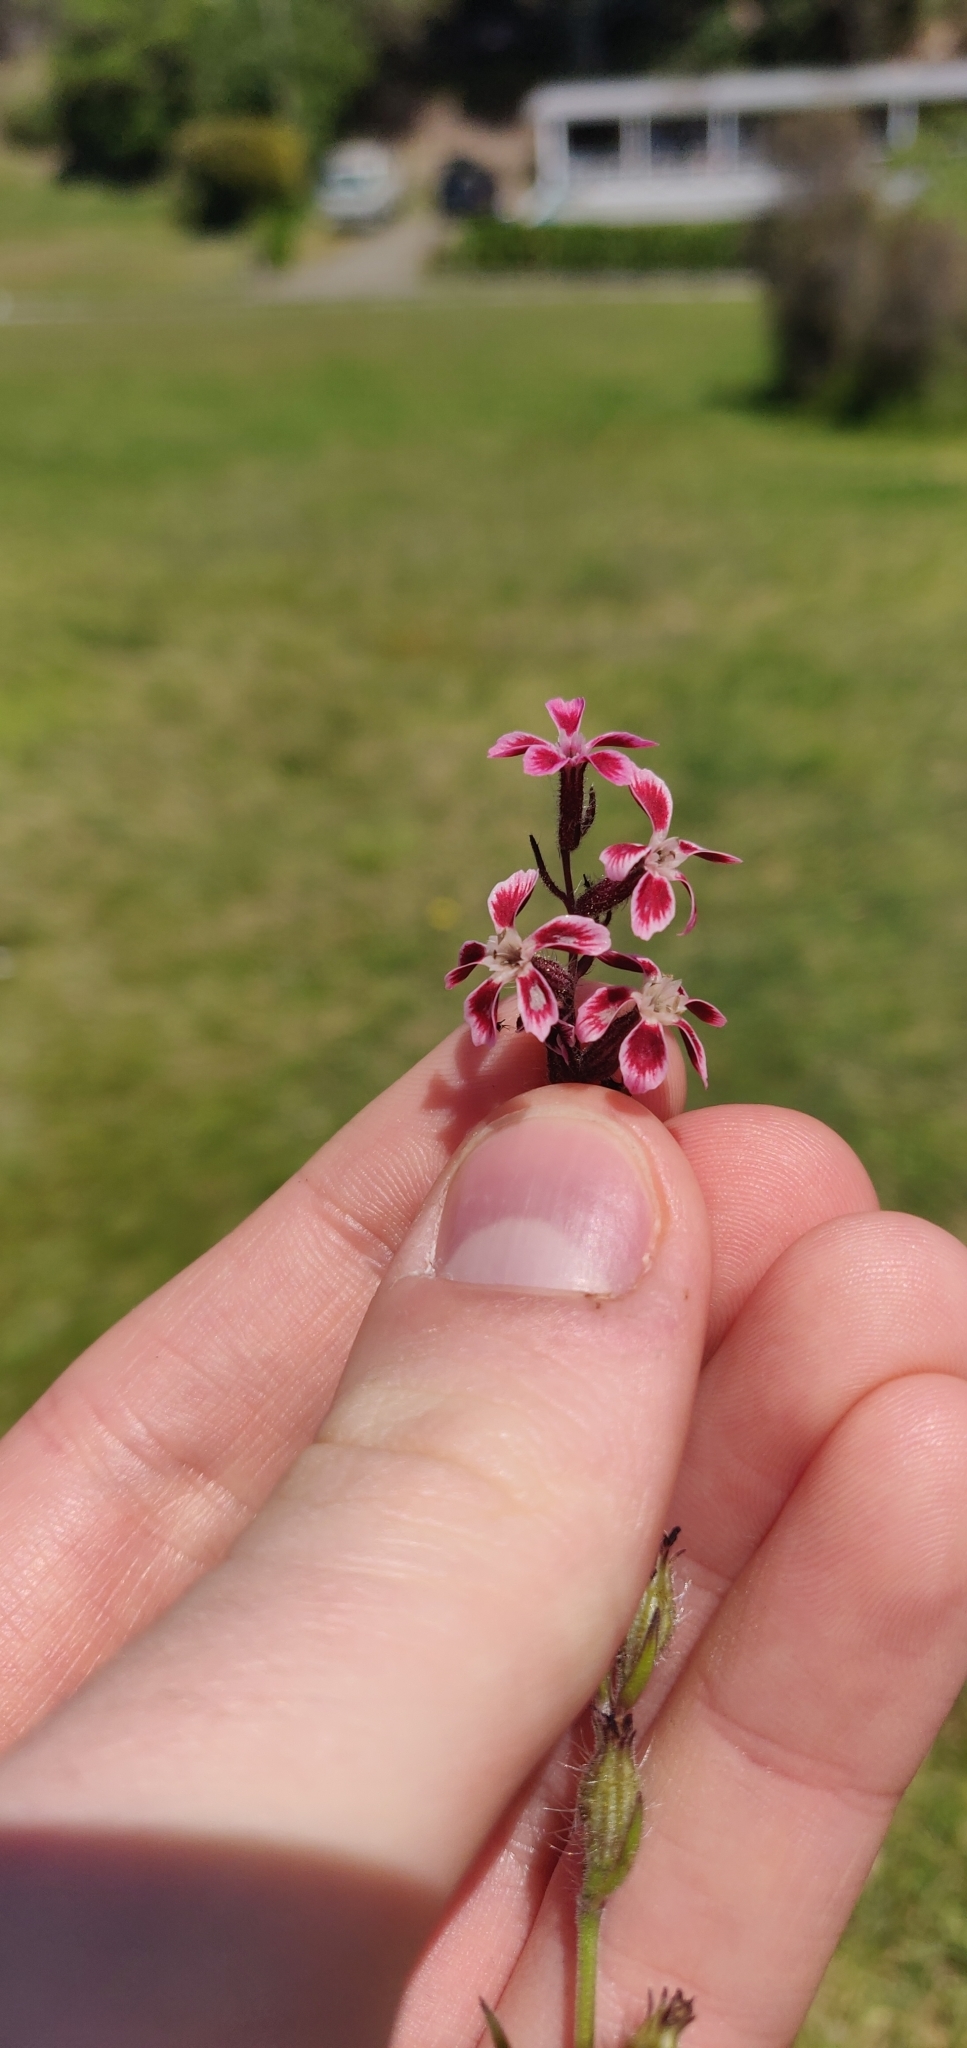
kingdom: Plantae
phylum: Tracheophyta
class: Magnoliopsida
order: Caryophyllales
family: Caryophyllaceae
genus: Silene
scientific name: Silene gallica
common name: Small-flowered catchfly
